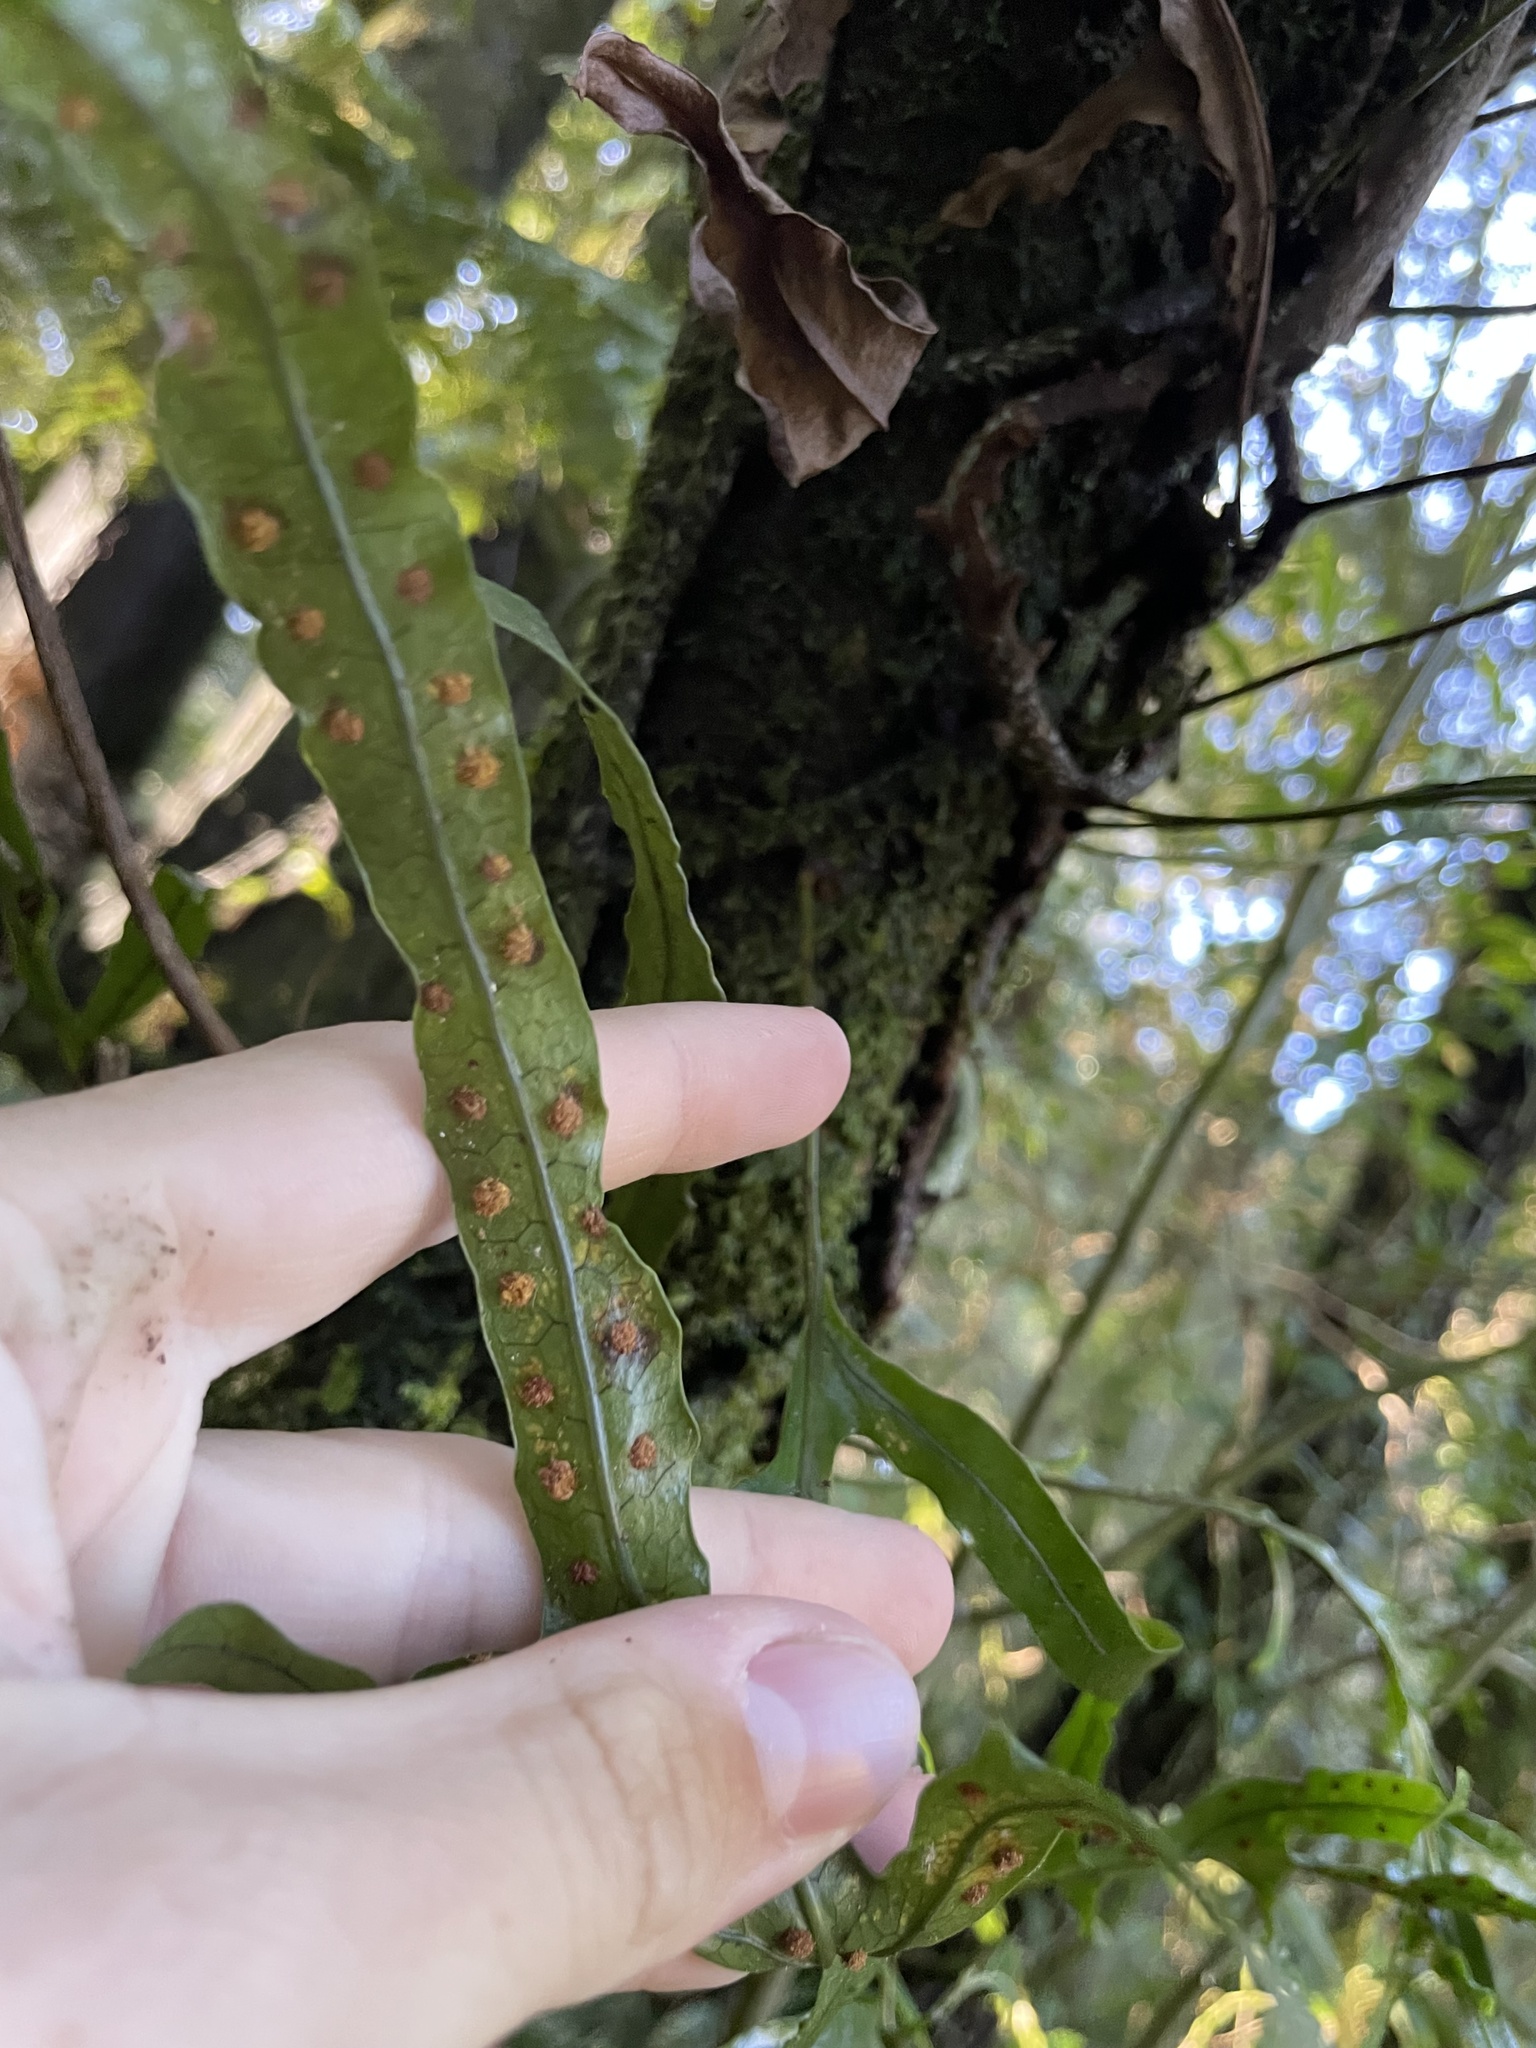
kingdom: Plantae
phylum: Tracheophyta
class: Polypodiopsida
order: Polypodiales
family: Polypodiaceae
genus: Lecanopteris
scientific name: Lecanopteris pustulata
